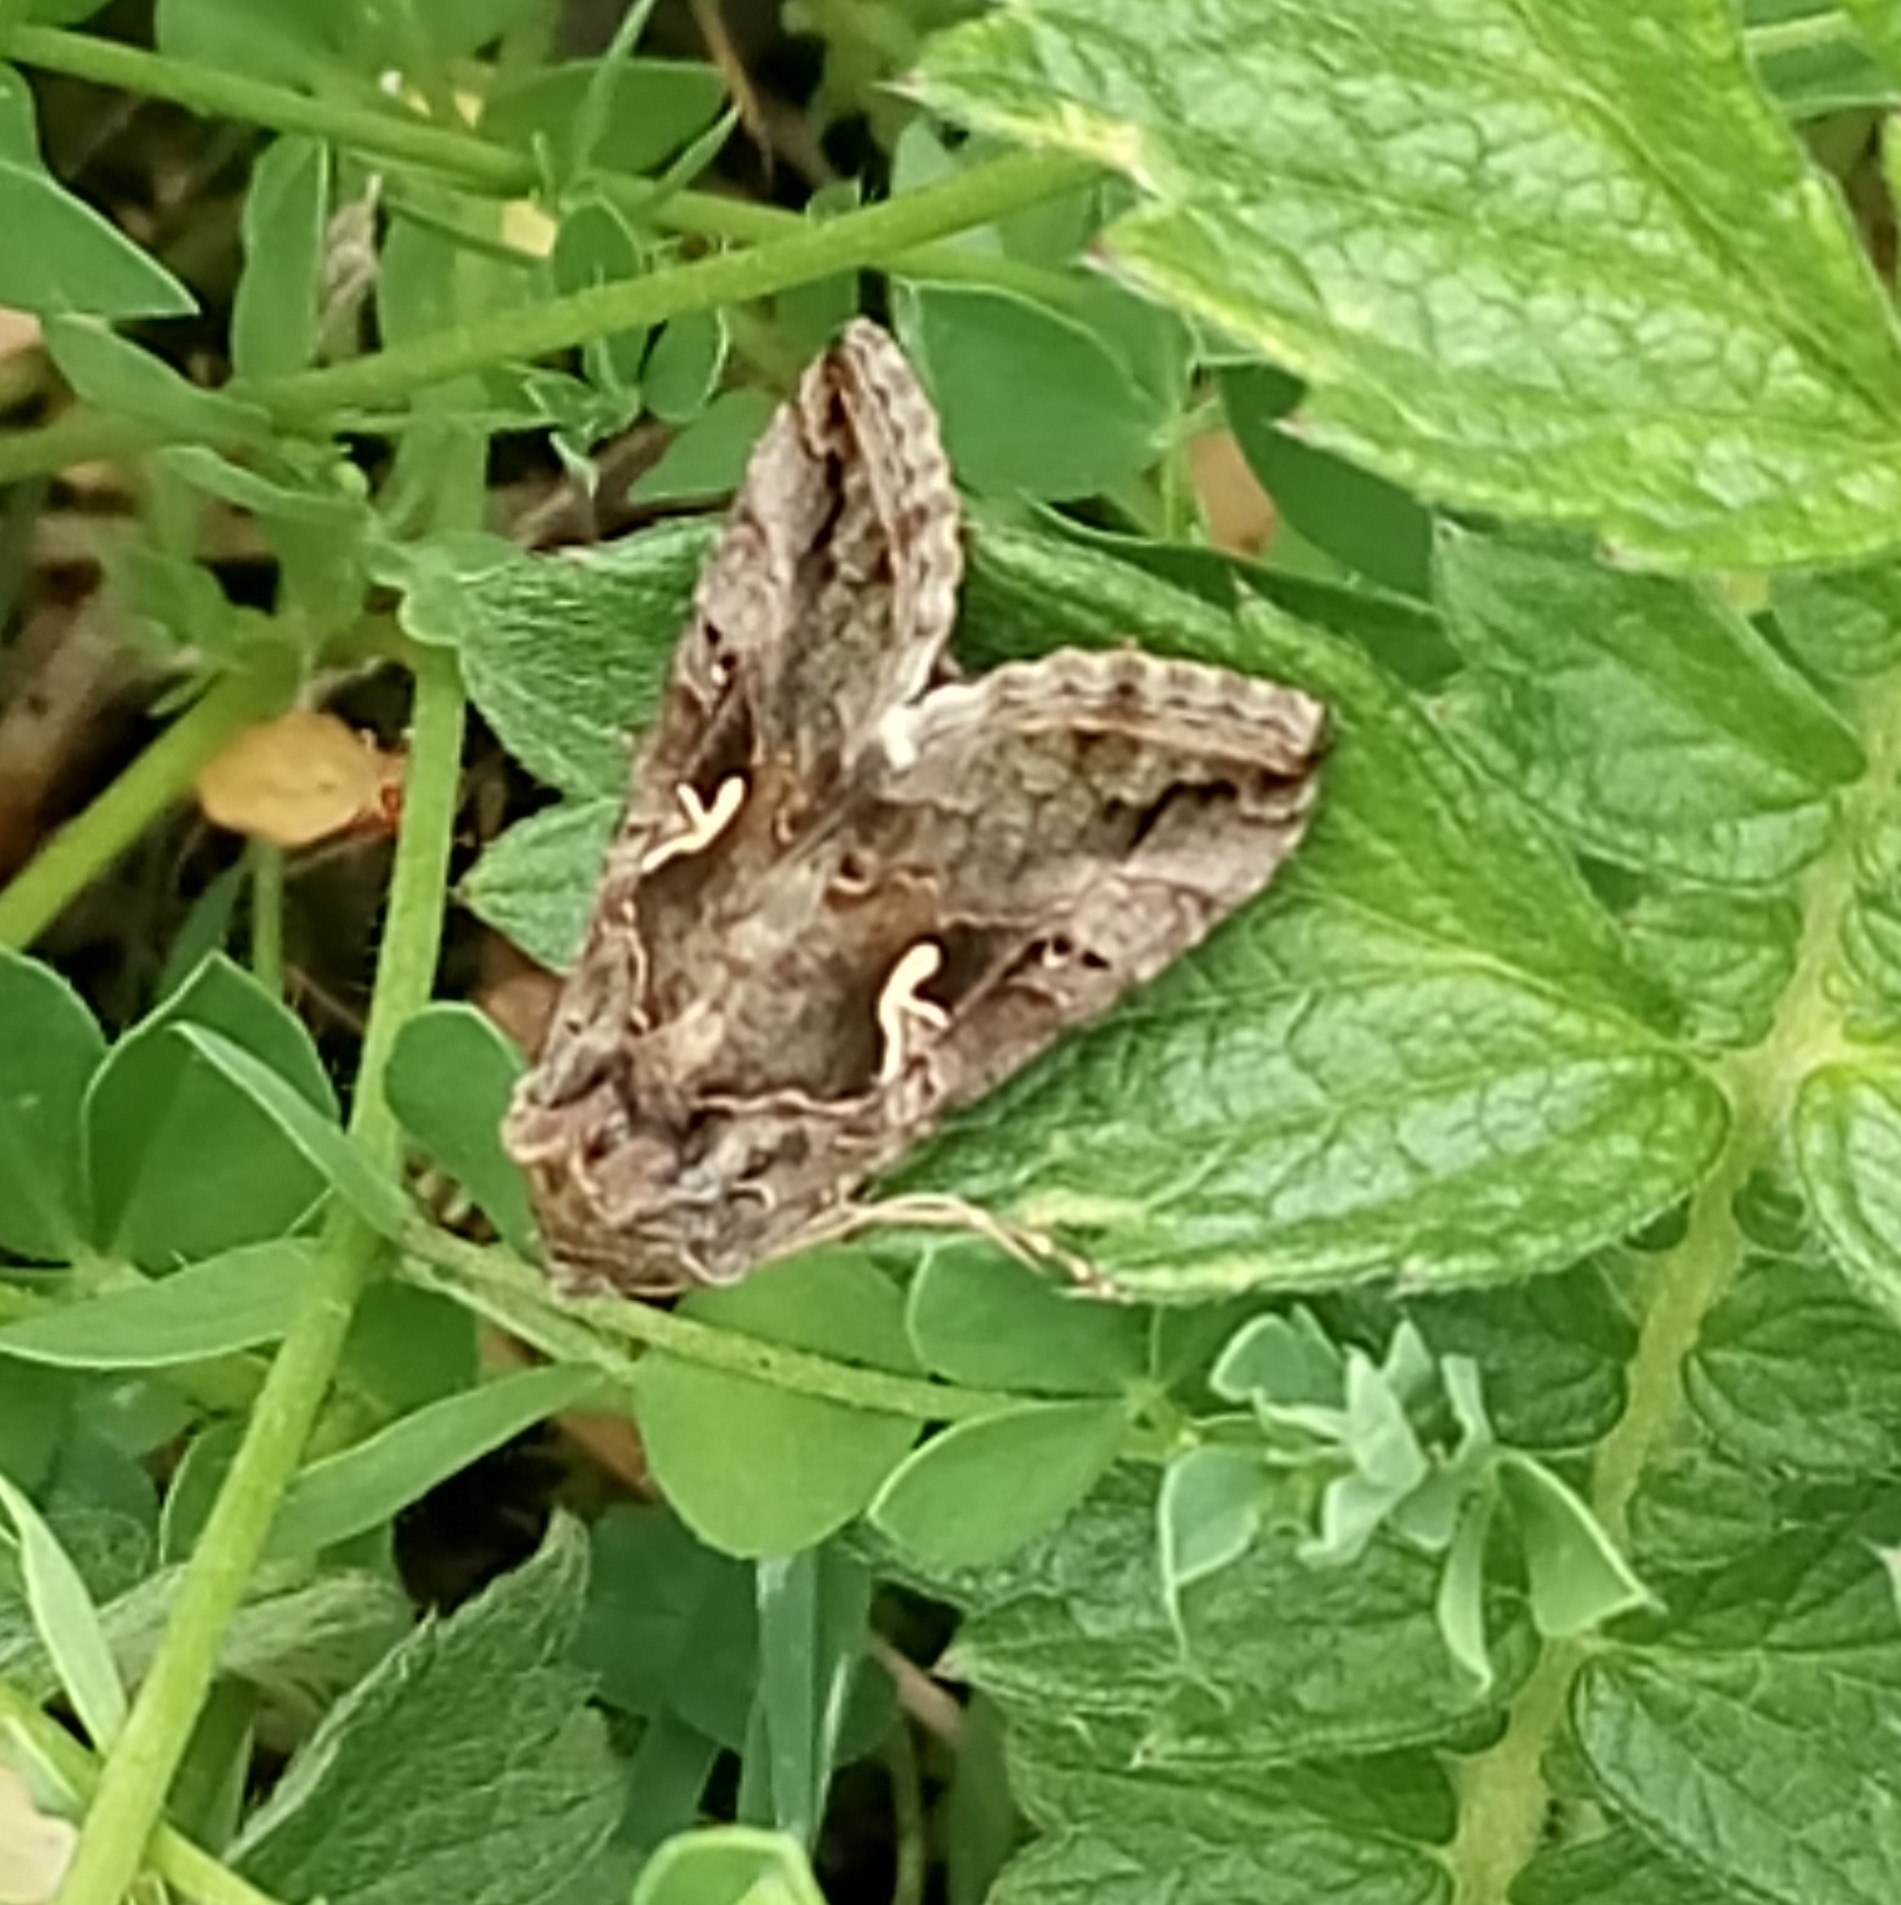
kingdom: Animalia
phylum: Arthropoda
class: Insecta
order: Lepidoptera
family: Noctuidae
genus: Autographa
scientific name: Autographa gamma
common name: Silver y
